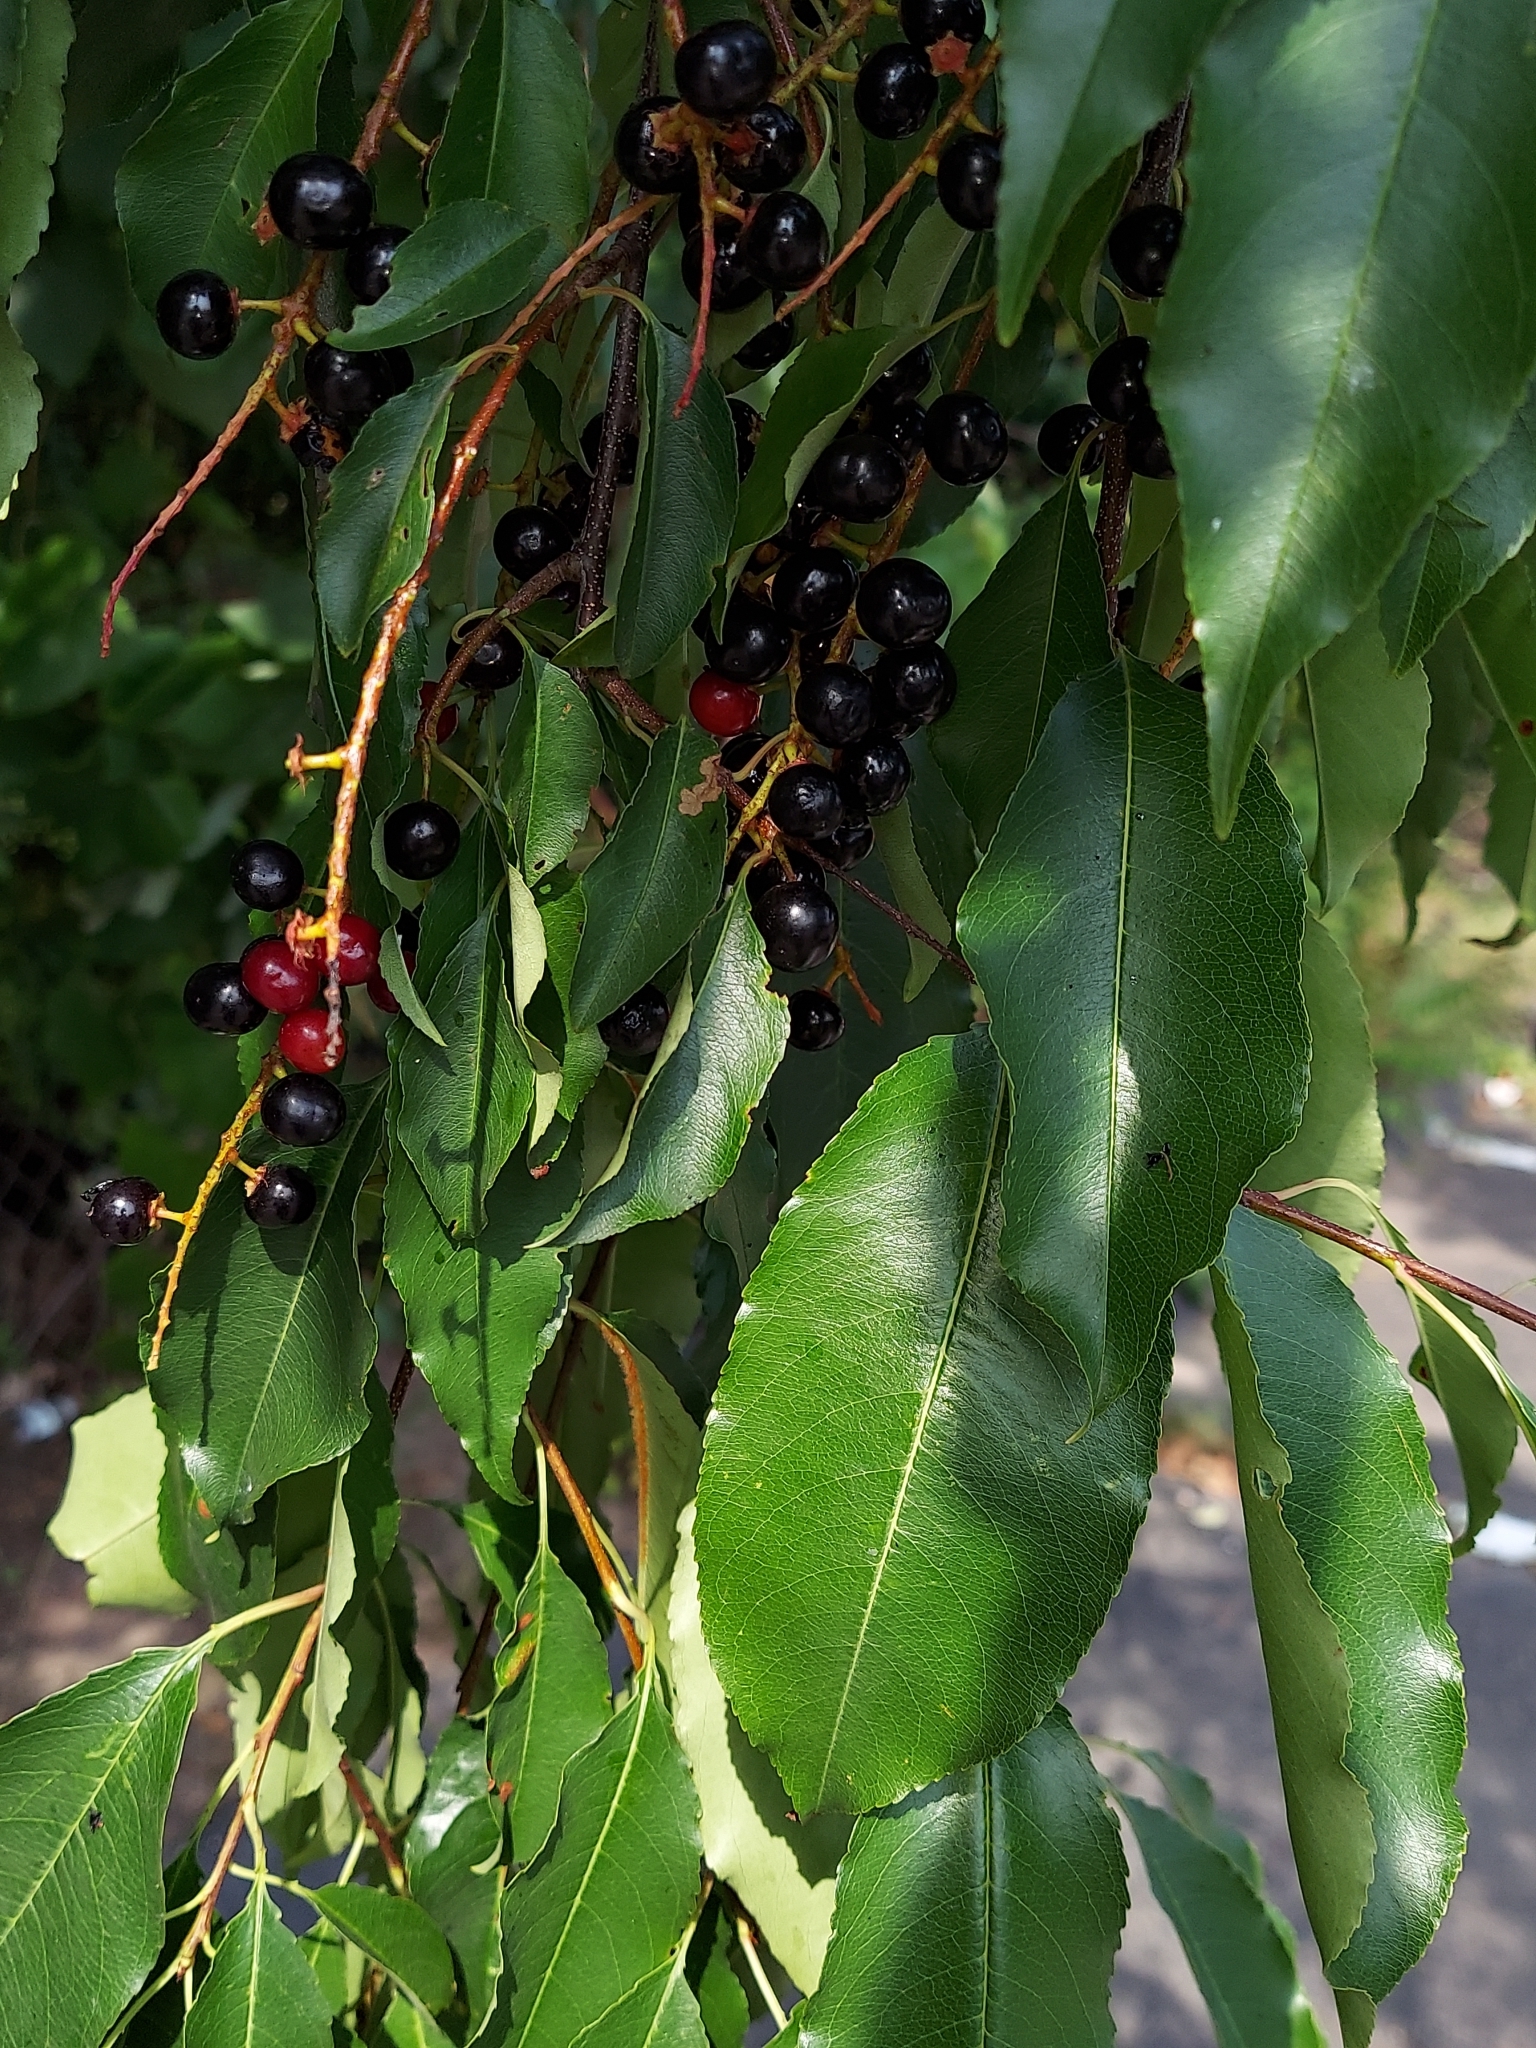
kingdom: Plantae
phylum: Tracheophyta
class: Magnoliopsida
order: Rosales
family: Rosaceae
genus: Prunus
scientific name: Prunus serotina
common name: Black cherry
